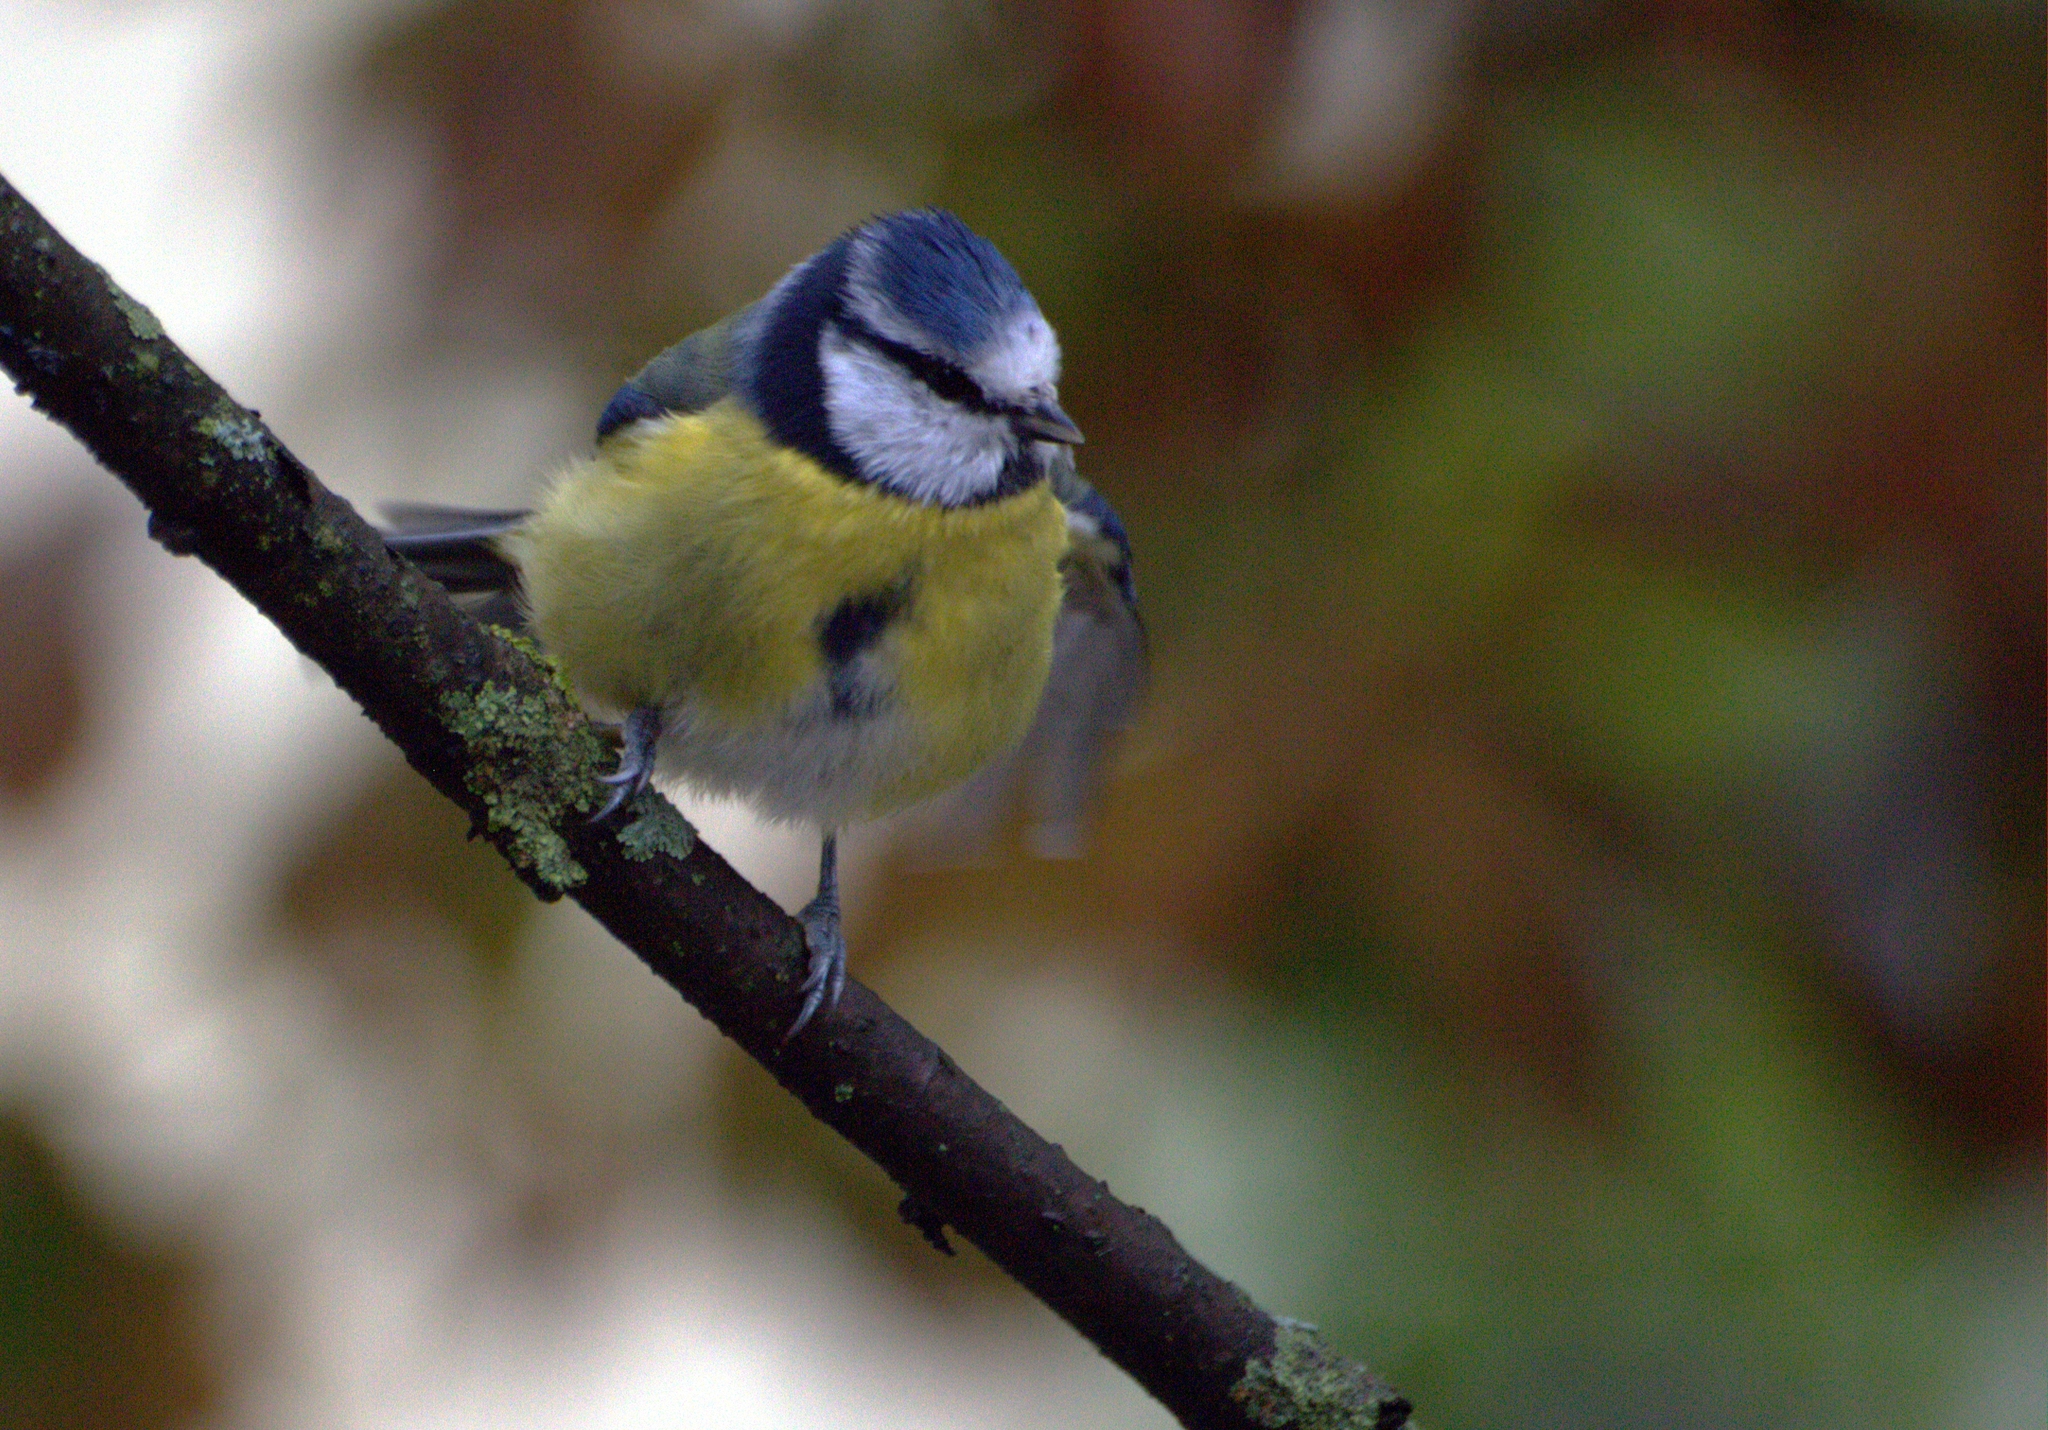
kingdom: Animalia
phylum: Chordata
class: Aves
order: Passeriformes
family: Paridae
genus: Cyanistes
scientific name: Cyanistes caeruleus
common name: Eurasian blue tit
